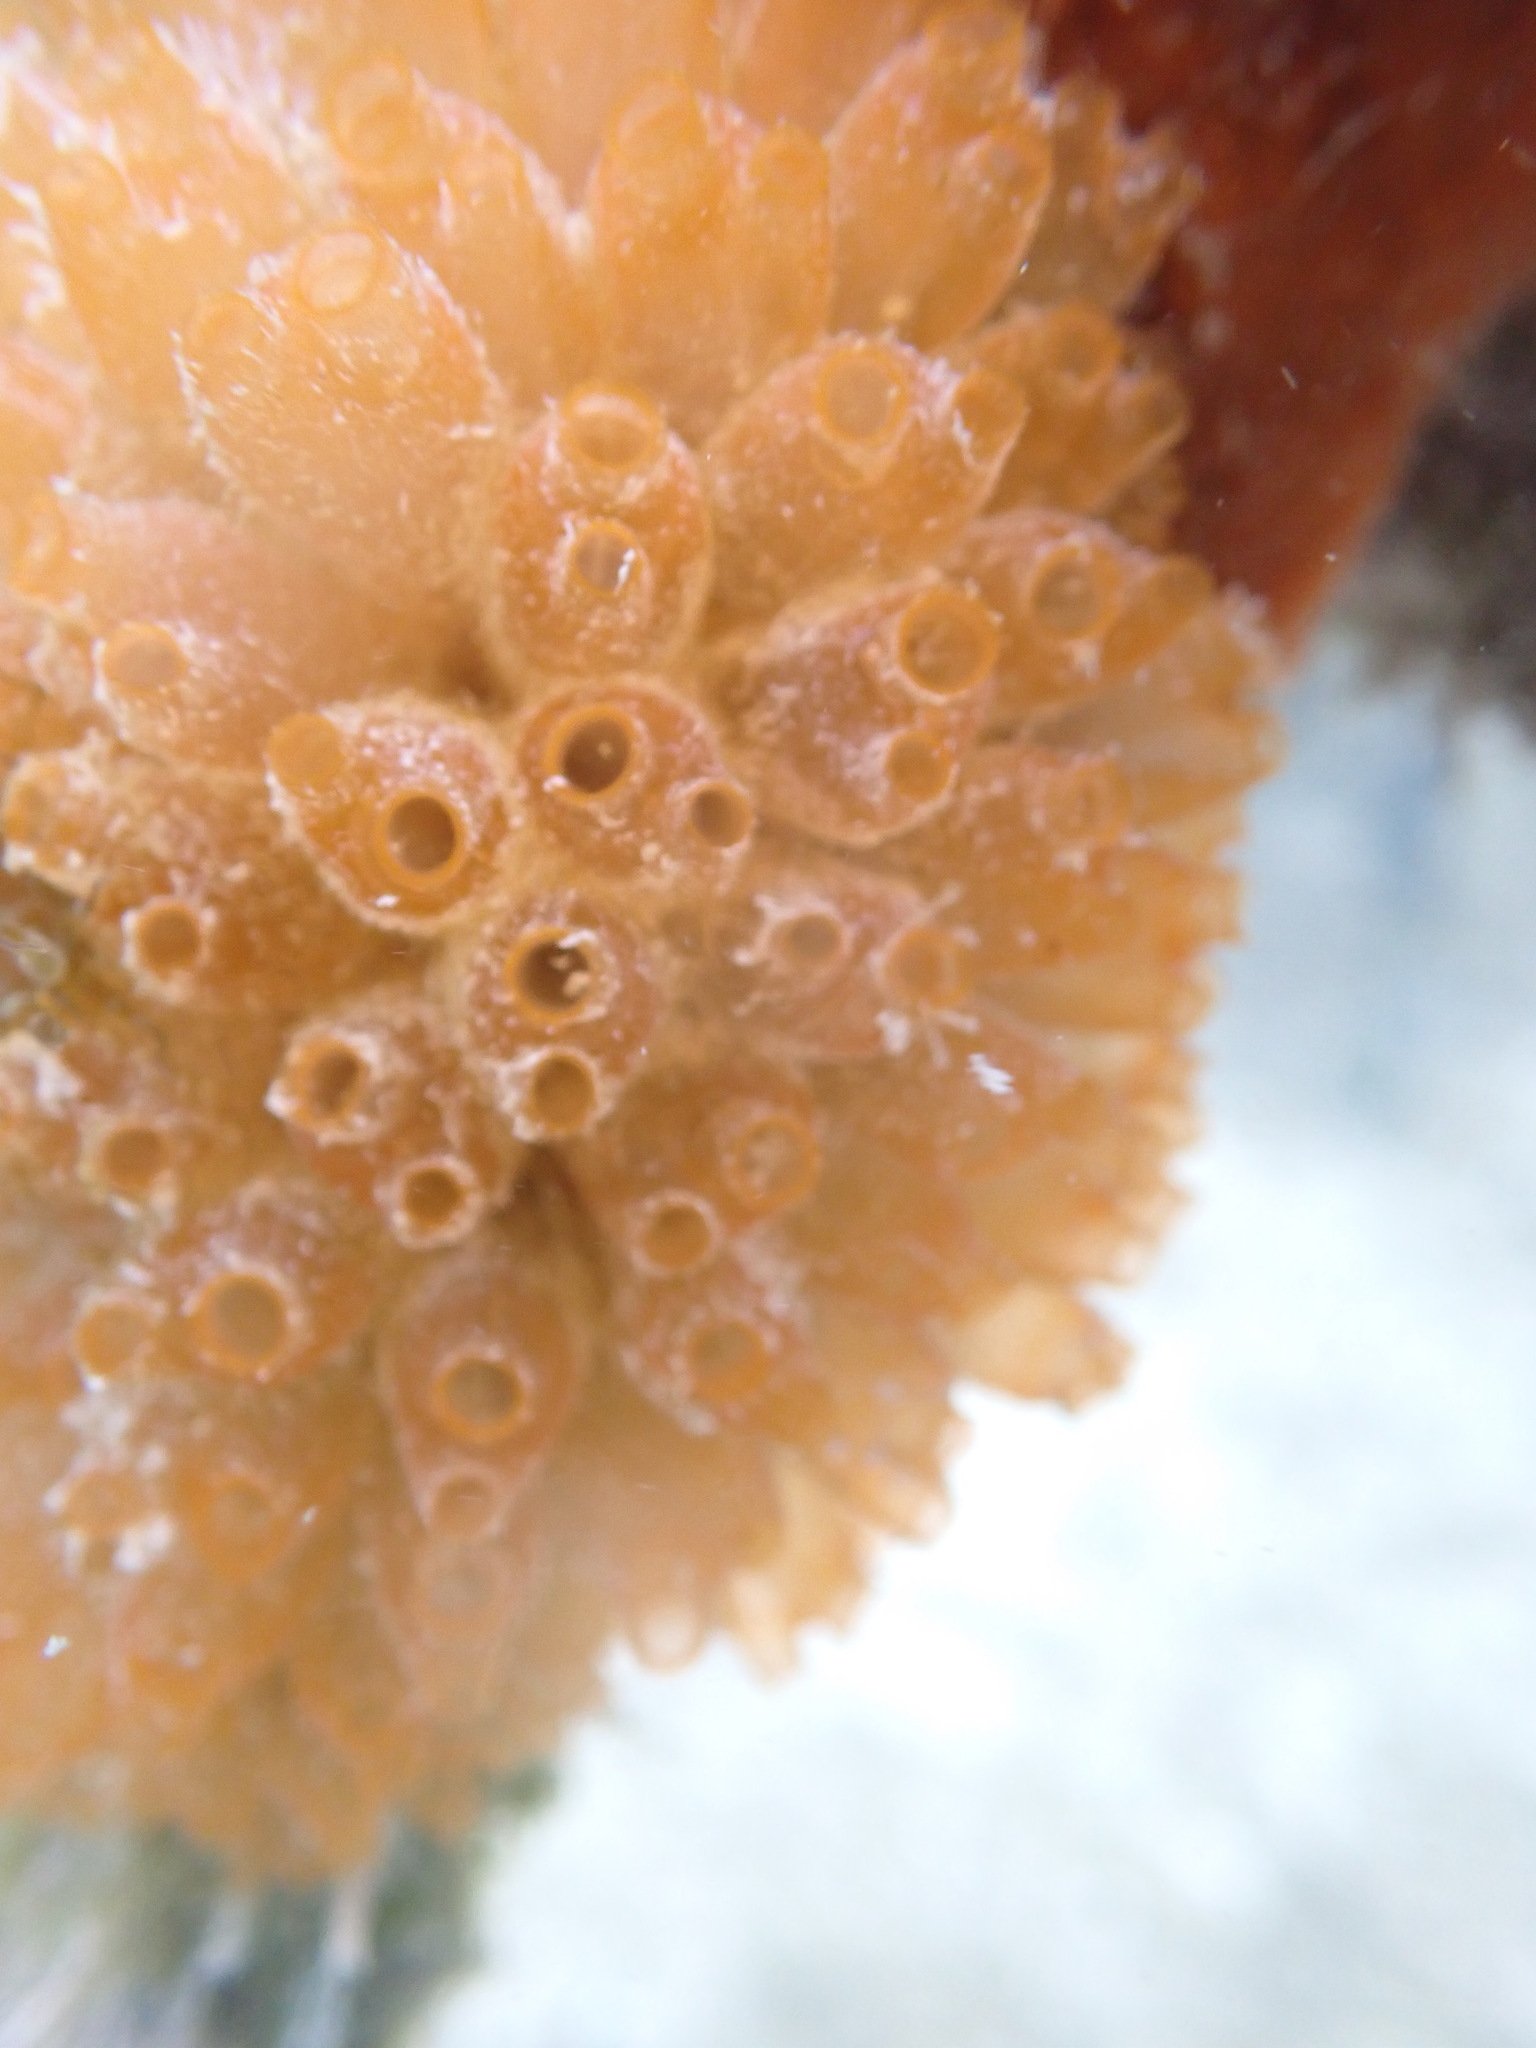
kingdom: Animalia
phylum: Chordata
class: Ascidiacea
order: Phlebobranchia
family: Perophoridae
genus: Ecteinascidia
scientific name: Ecteinascidia turbinata
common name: Mangrove tunicate
